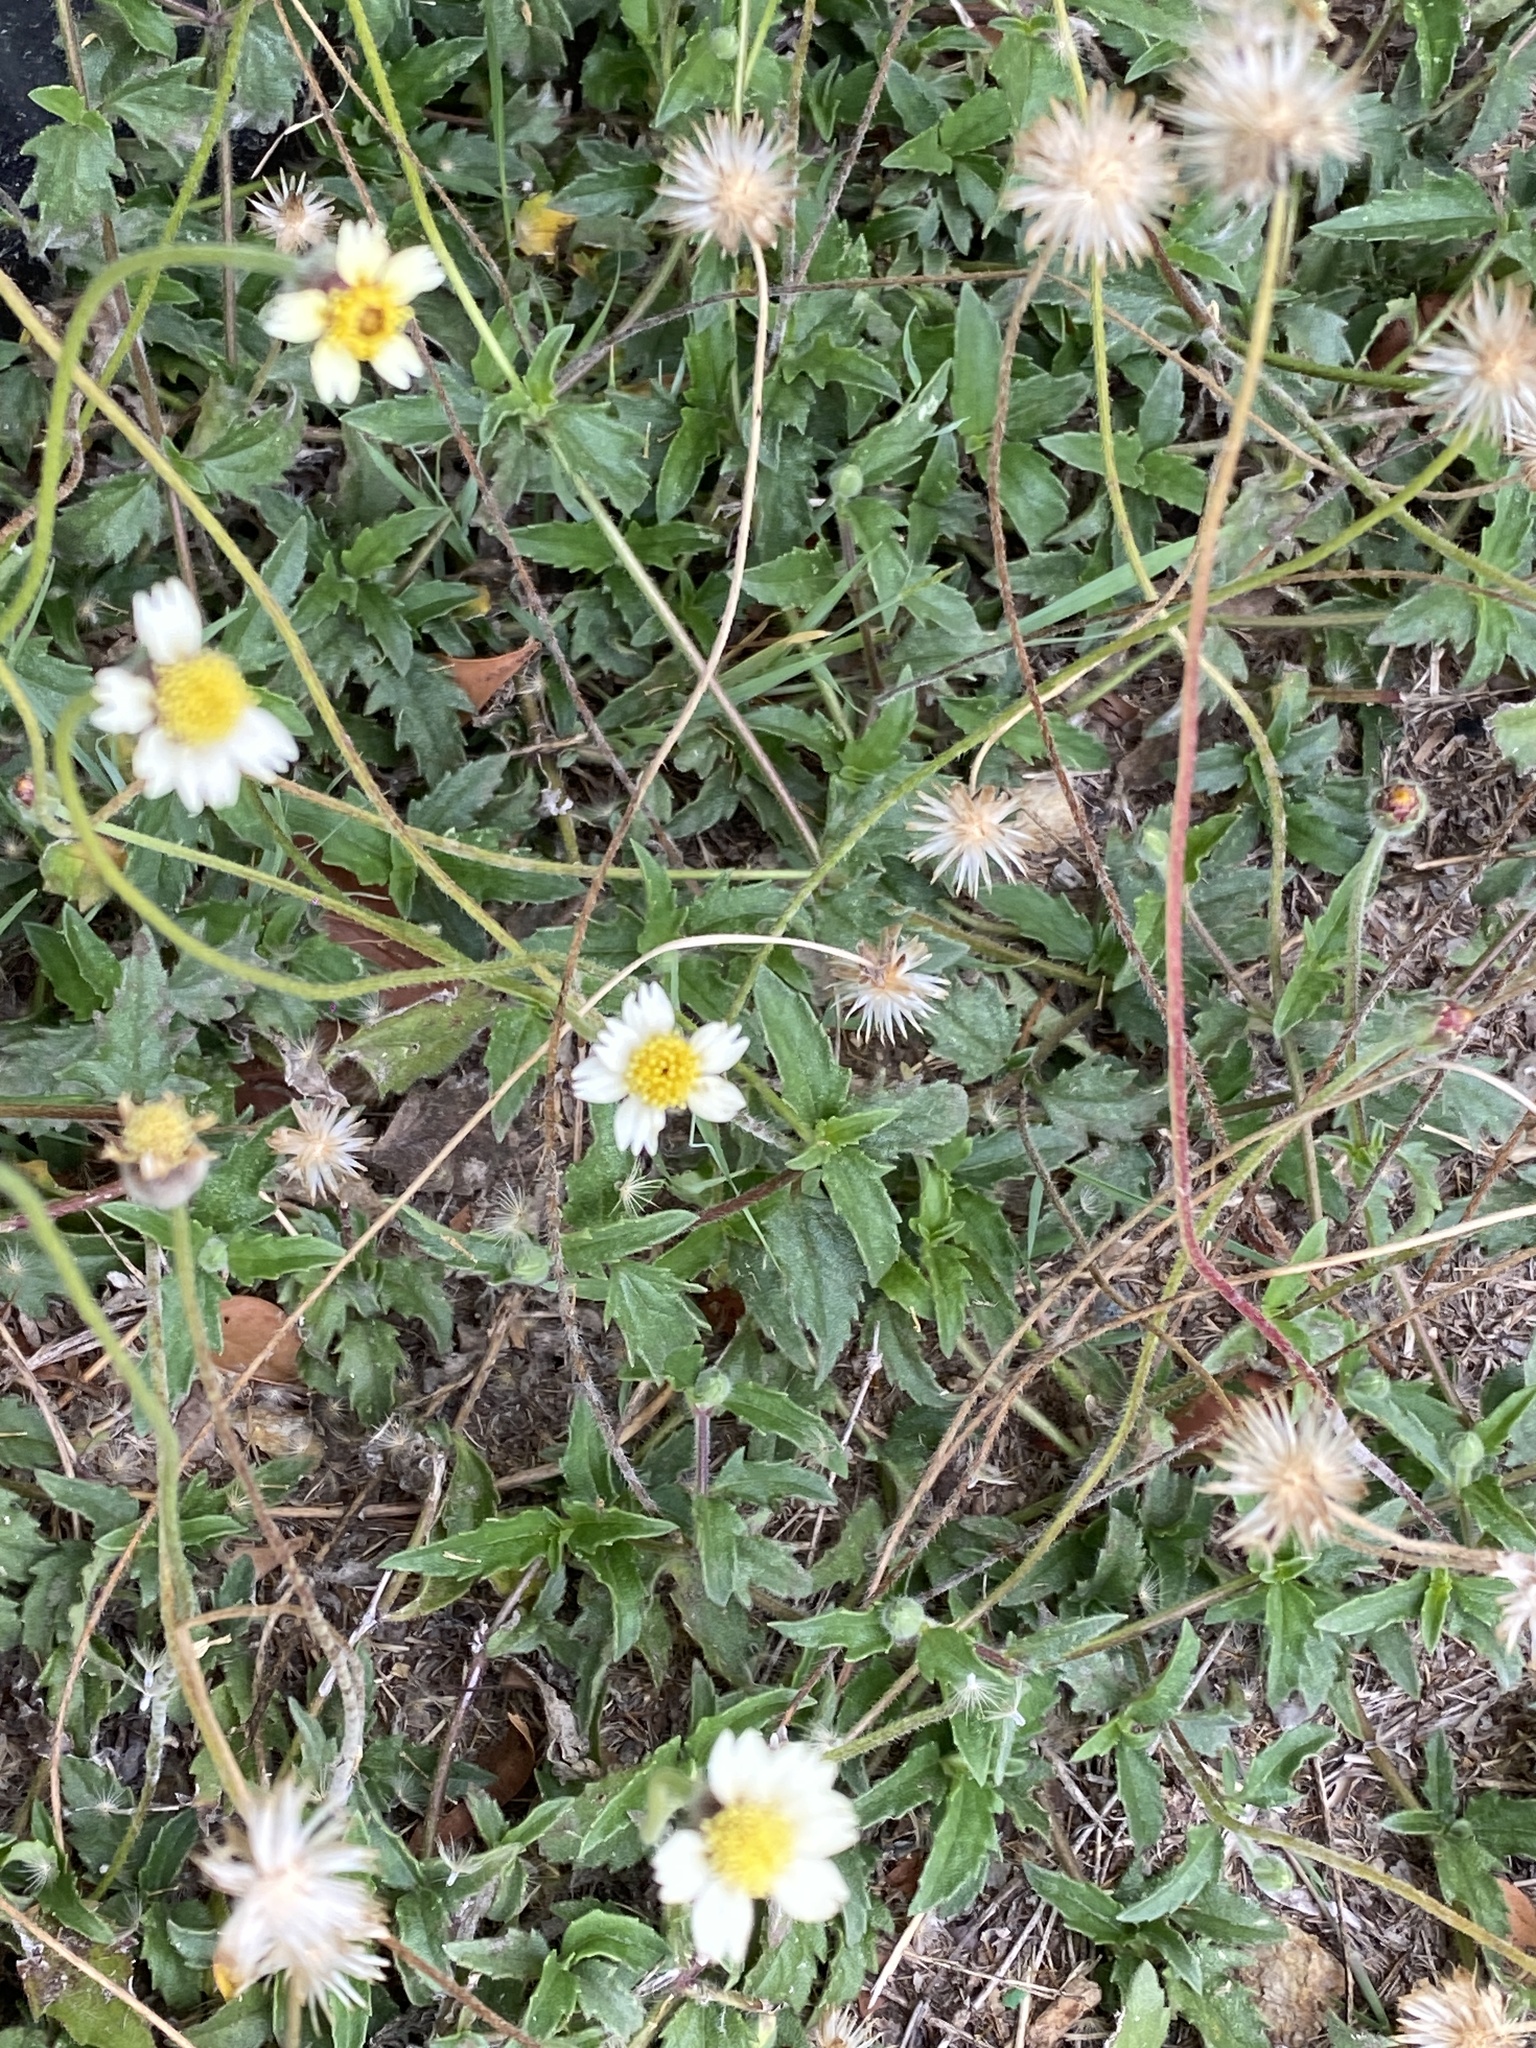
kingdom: Plantae
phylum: Tracheophyta
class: Magnoliopsida
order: Asterales
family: Asteraceae
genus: Tridax
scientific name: Tridax procumbens
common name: Coatbuttons
